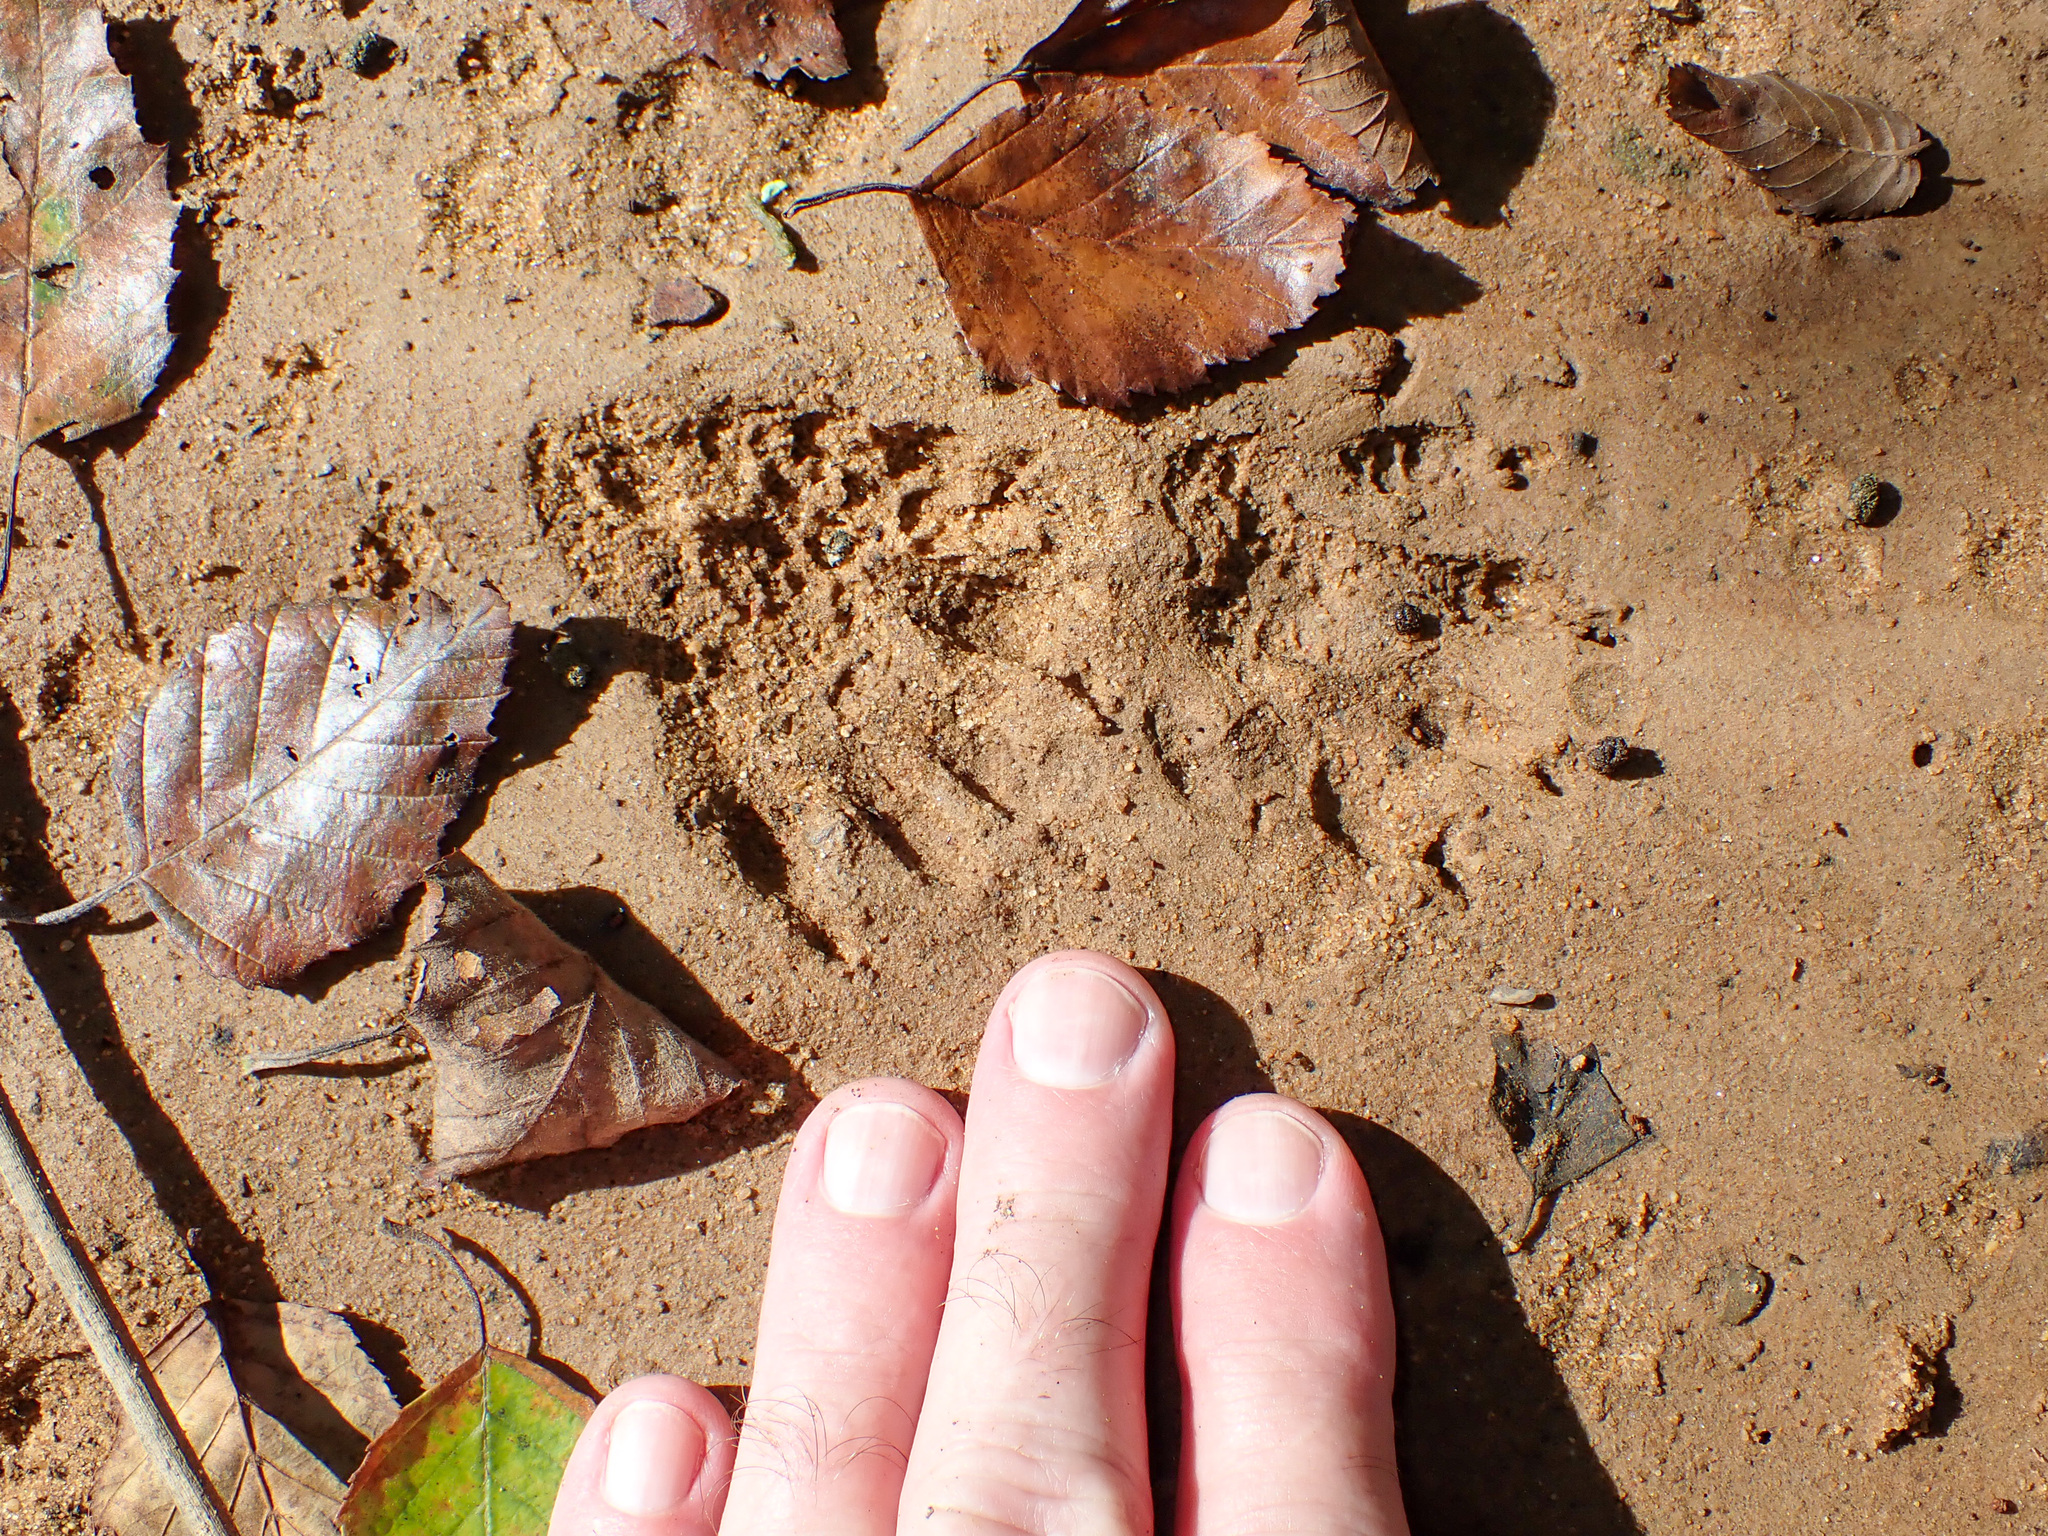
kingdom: Animalia
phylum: Chordata
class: Mammalia
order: Carnivora
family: Procyonidae
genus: Procyon
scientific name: Procyon lotor
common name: Raccoon
